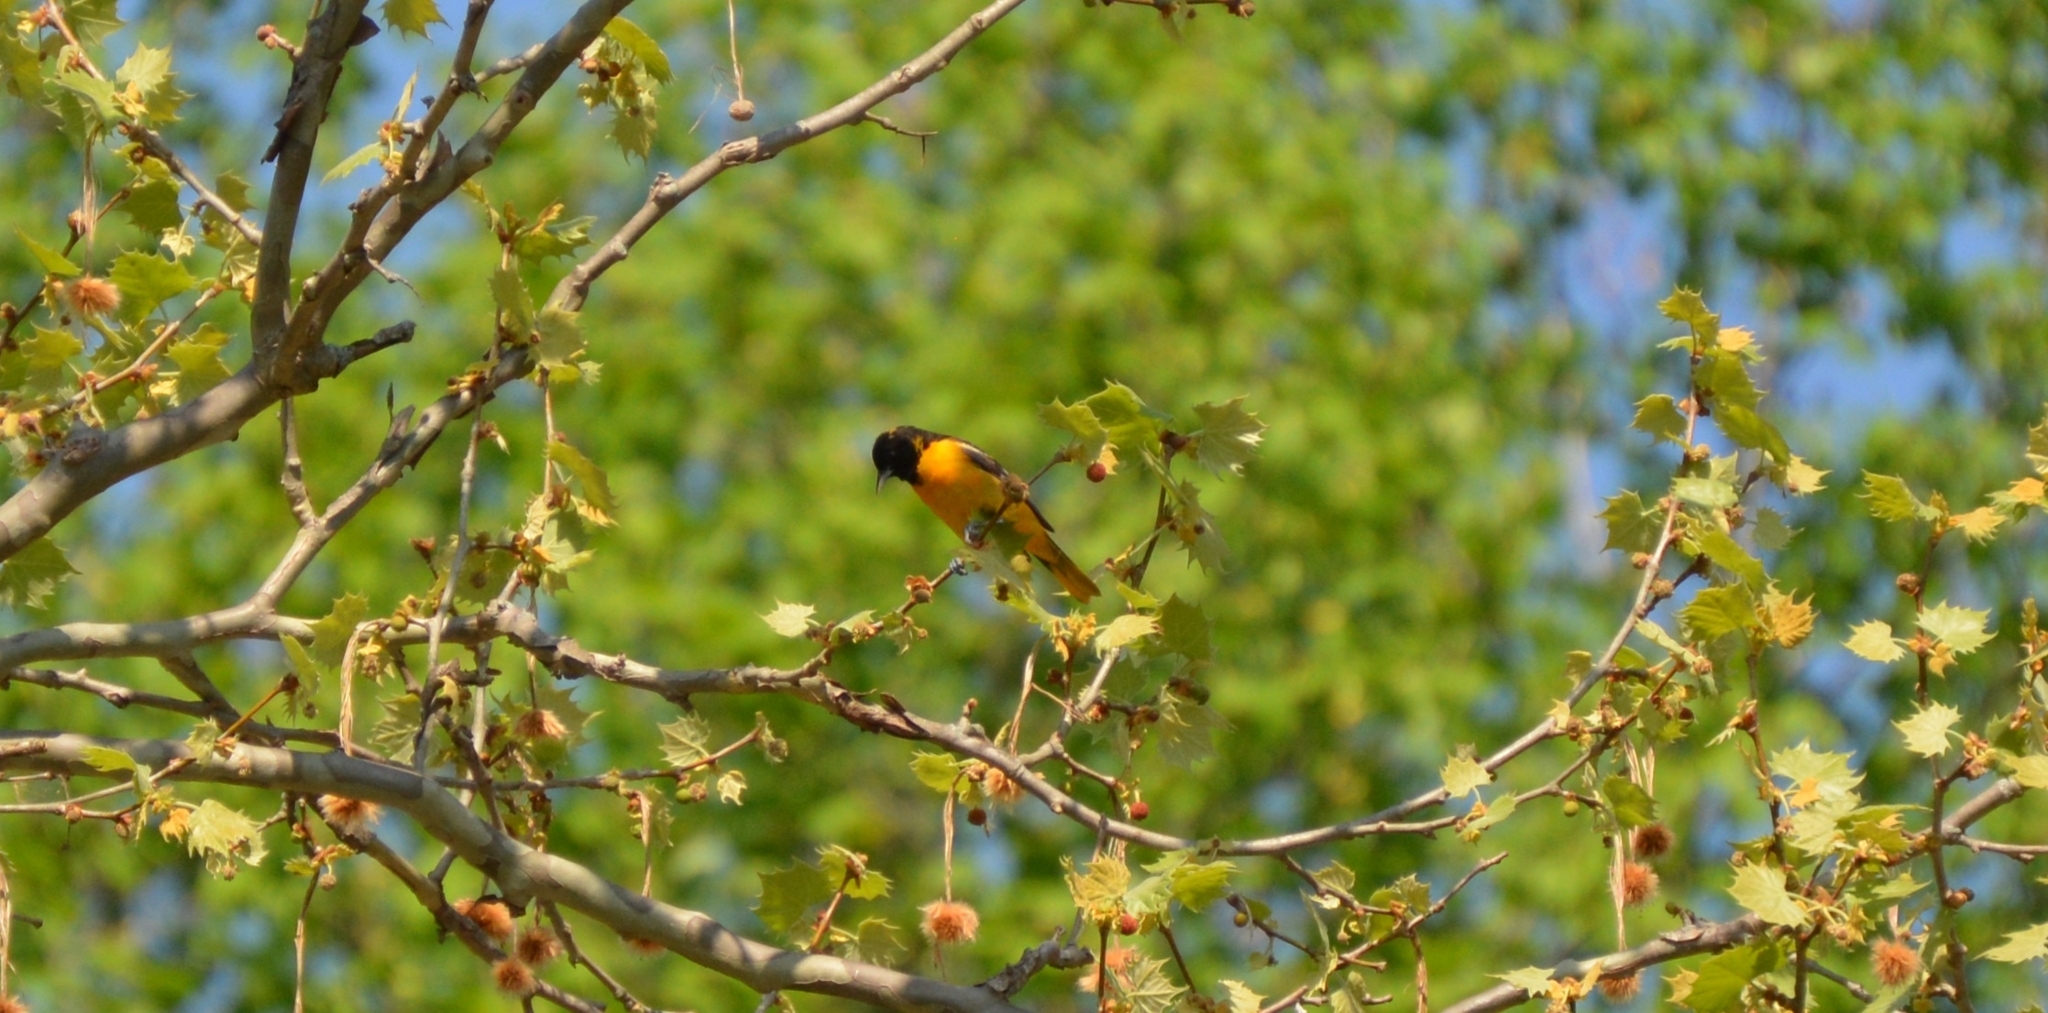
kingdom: Animalia
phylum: Chordata
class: Aves
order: Passeriformes
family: Icteridae
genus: Icterus
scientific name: Icterus galbula
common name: Baltimore oriole
